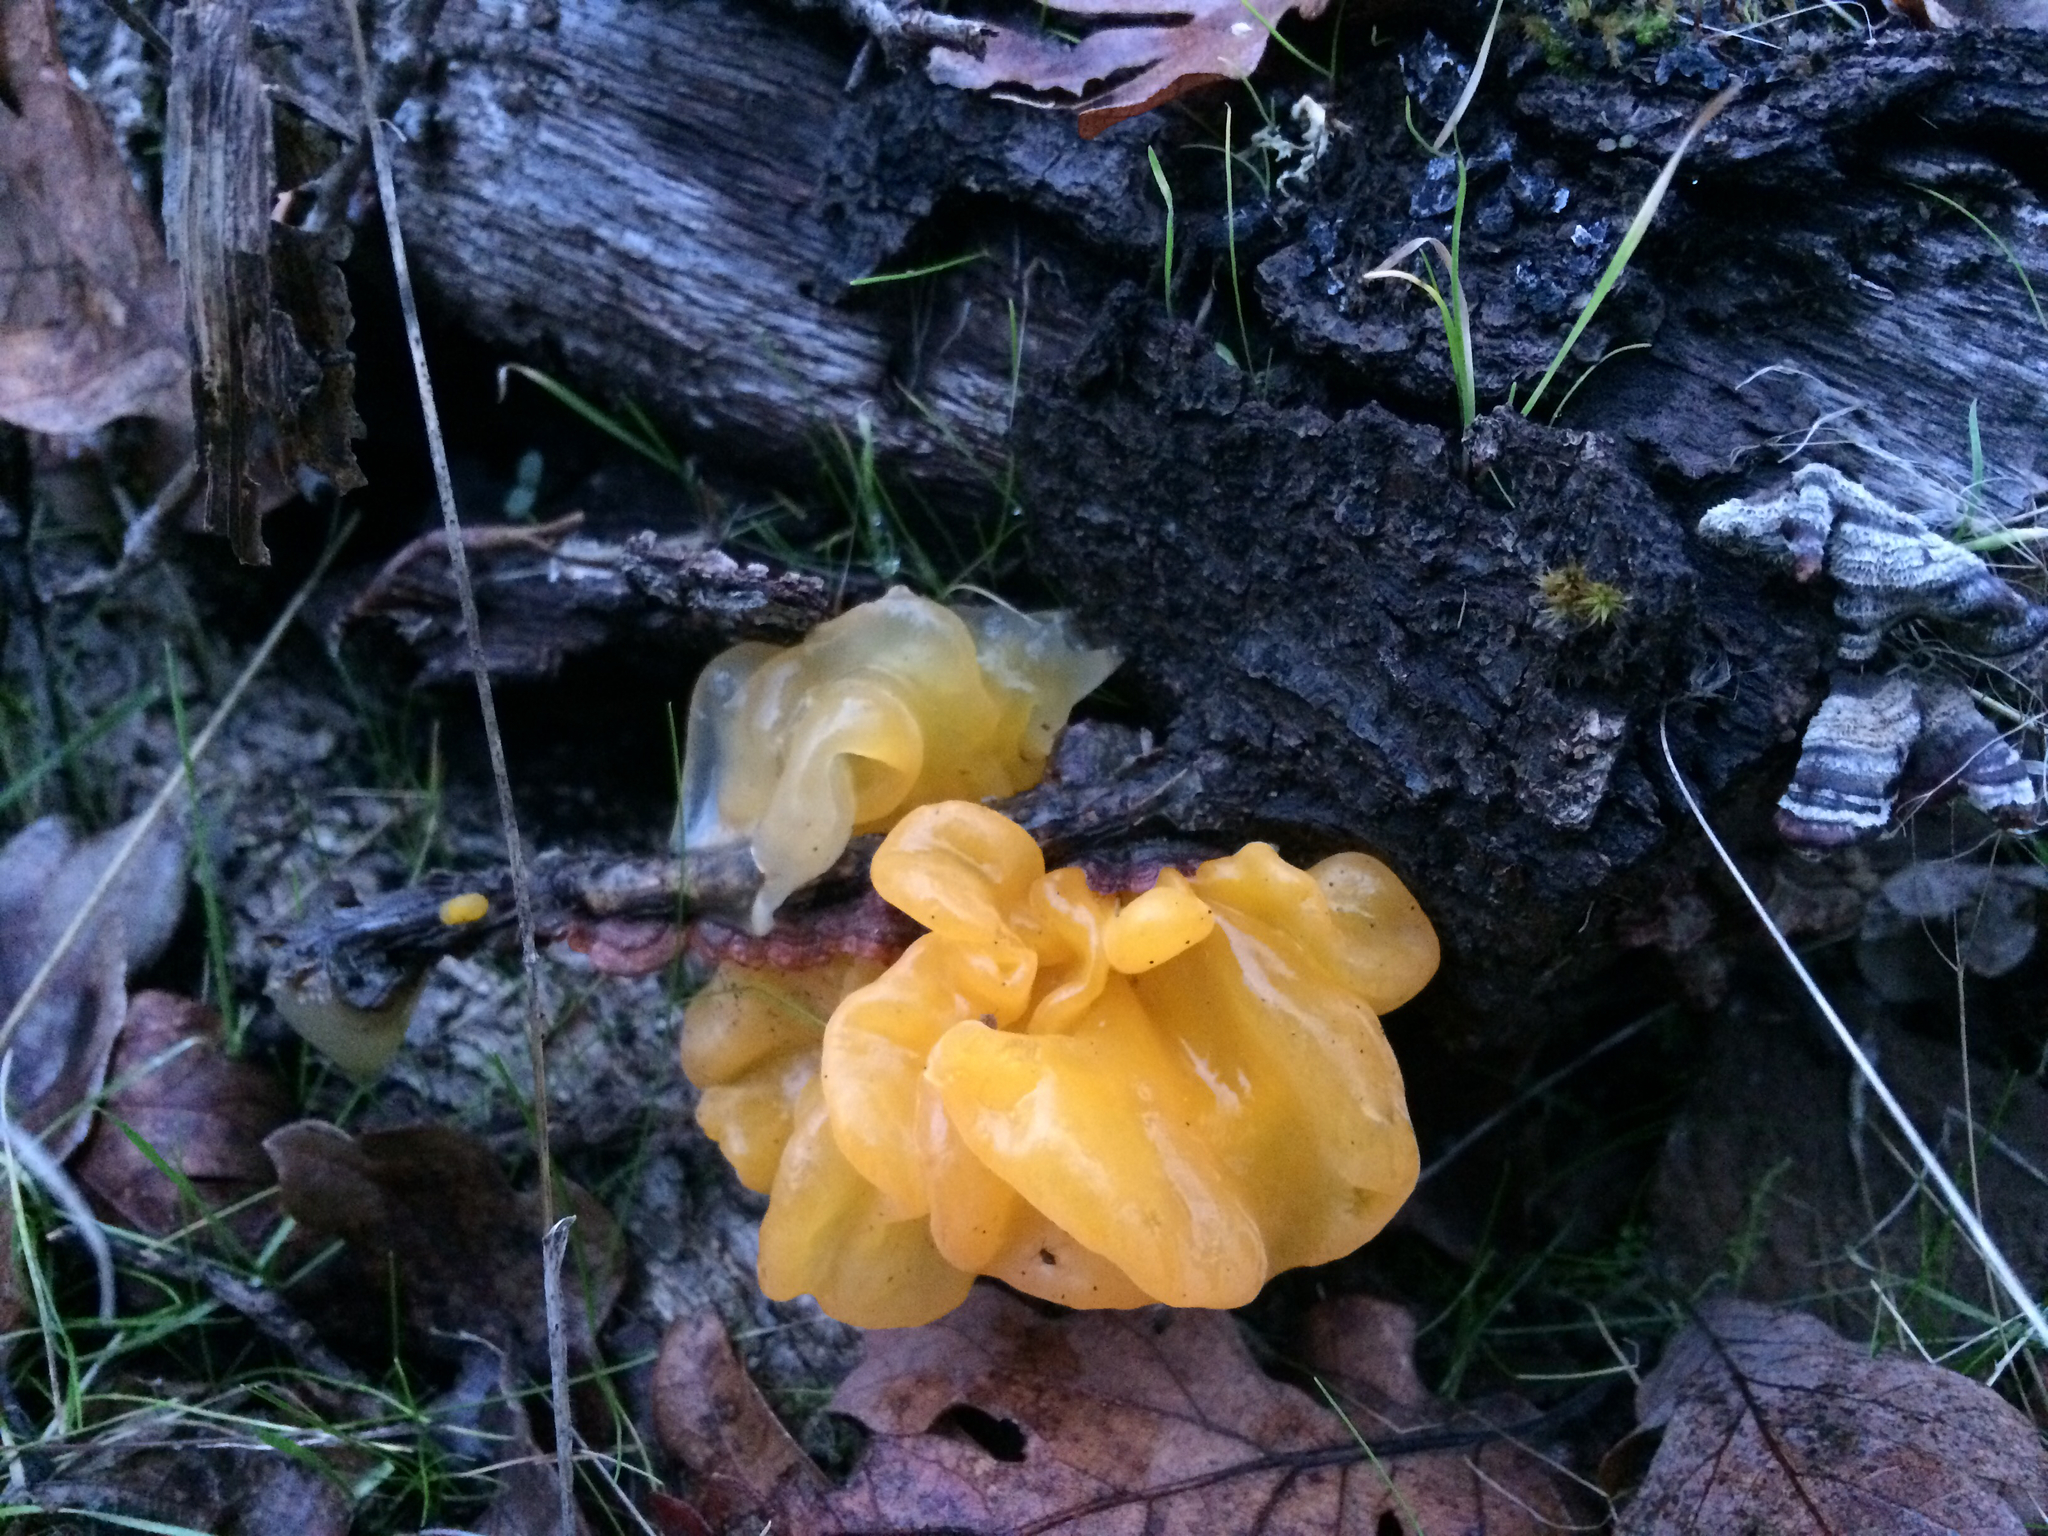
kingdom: Fungi
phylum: Basidiomycota
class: Tremellomycetes
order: Tremellales
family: Naemateliaceae
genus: Naematelia
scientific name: Naematelia aurantia
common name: Golden ear
